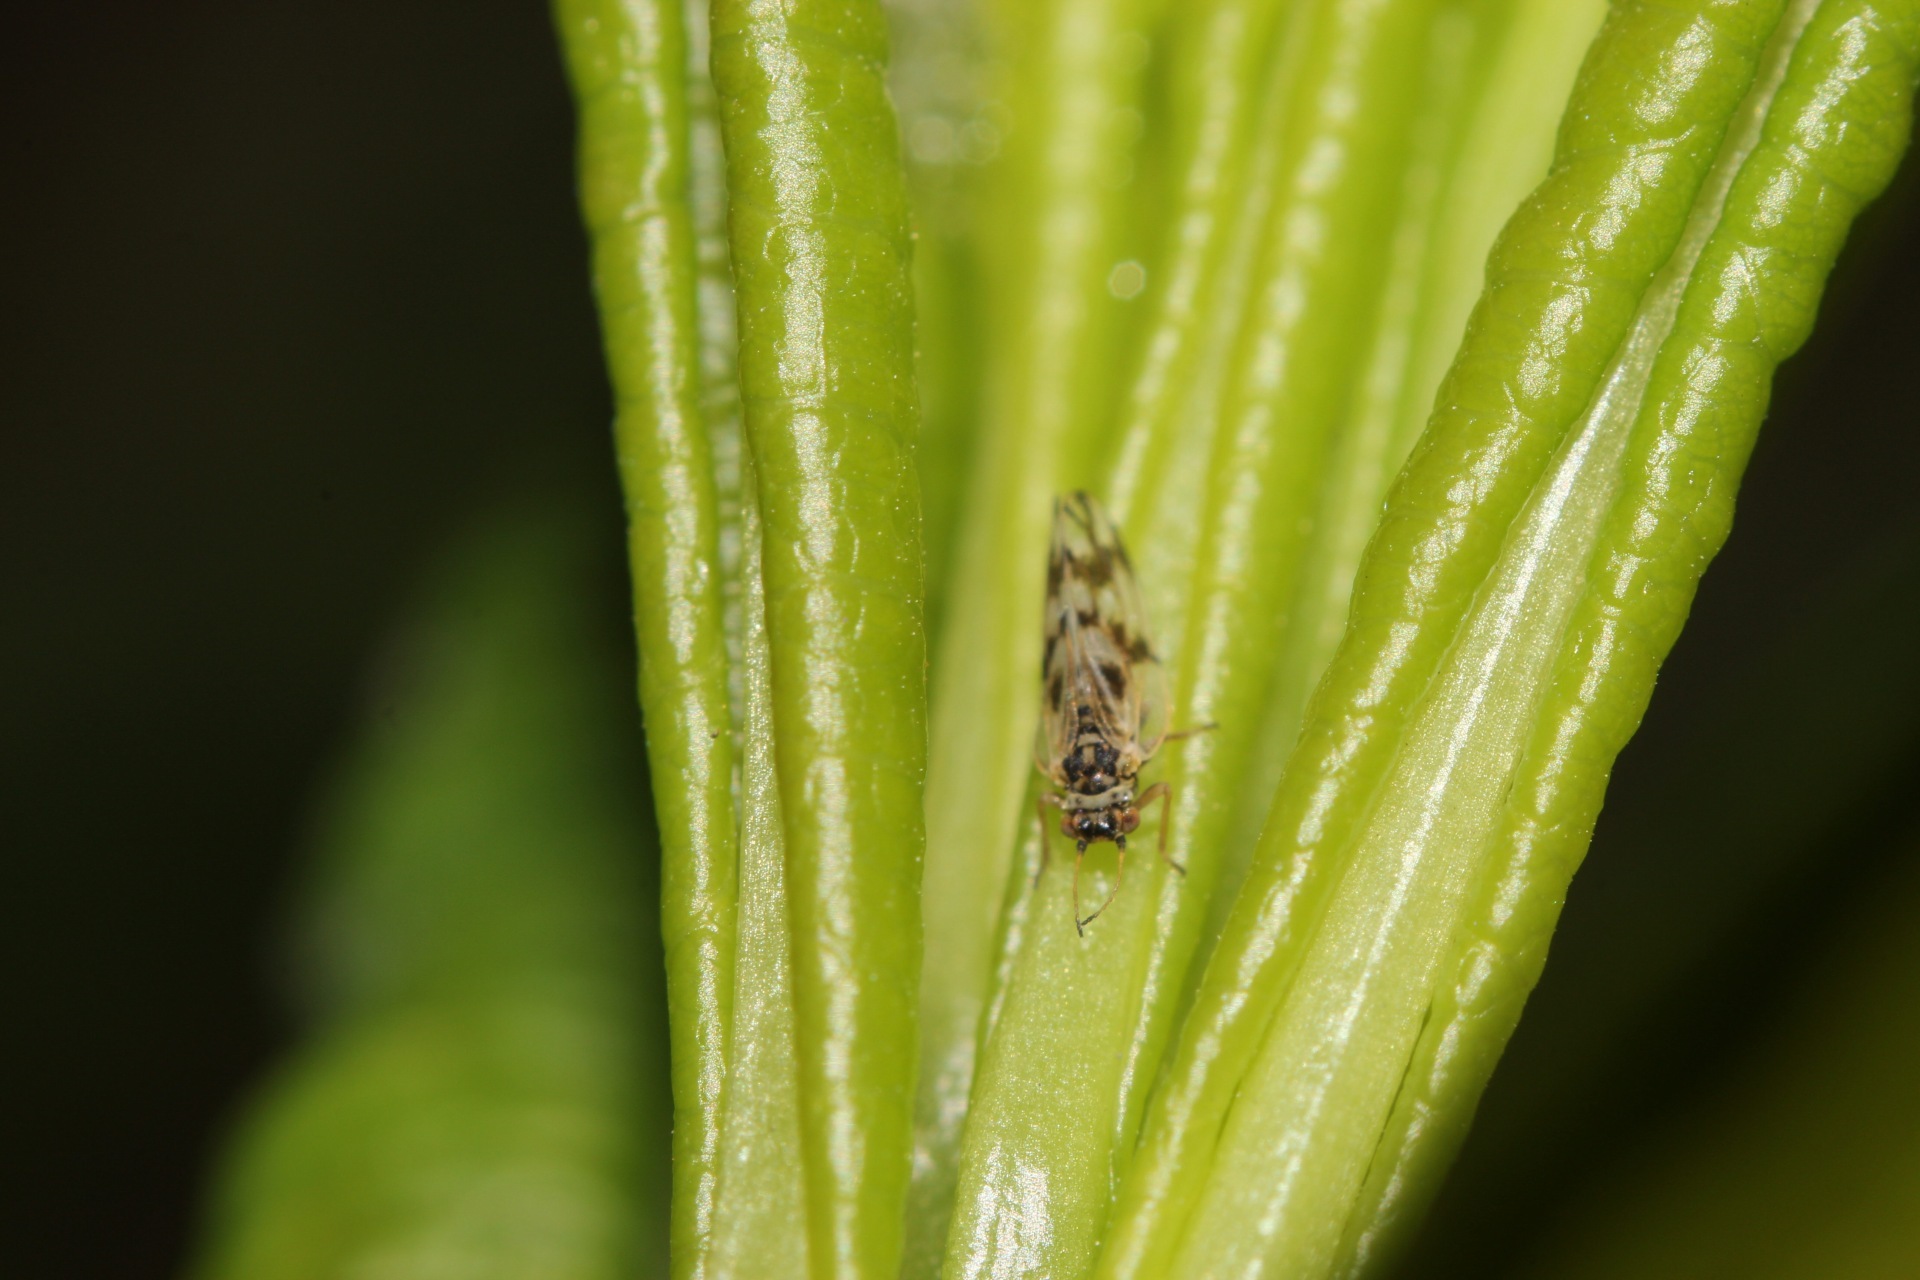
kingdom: Animalia
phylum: Arthropoda
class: Insecta
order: Hemiptera
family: Aphalaridae
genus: Craspedolepta
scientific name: Craspedolepta nebulosa
